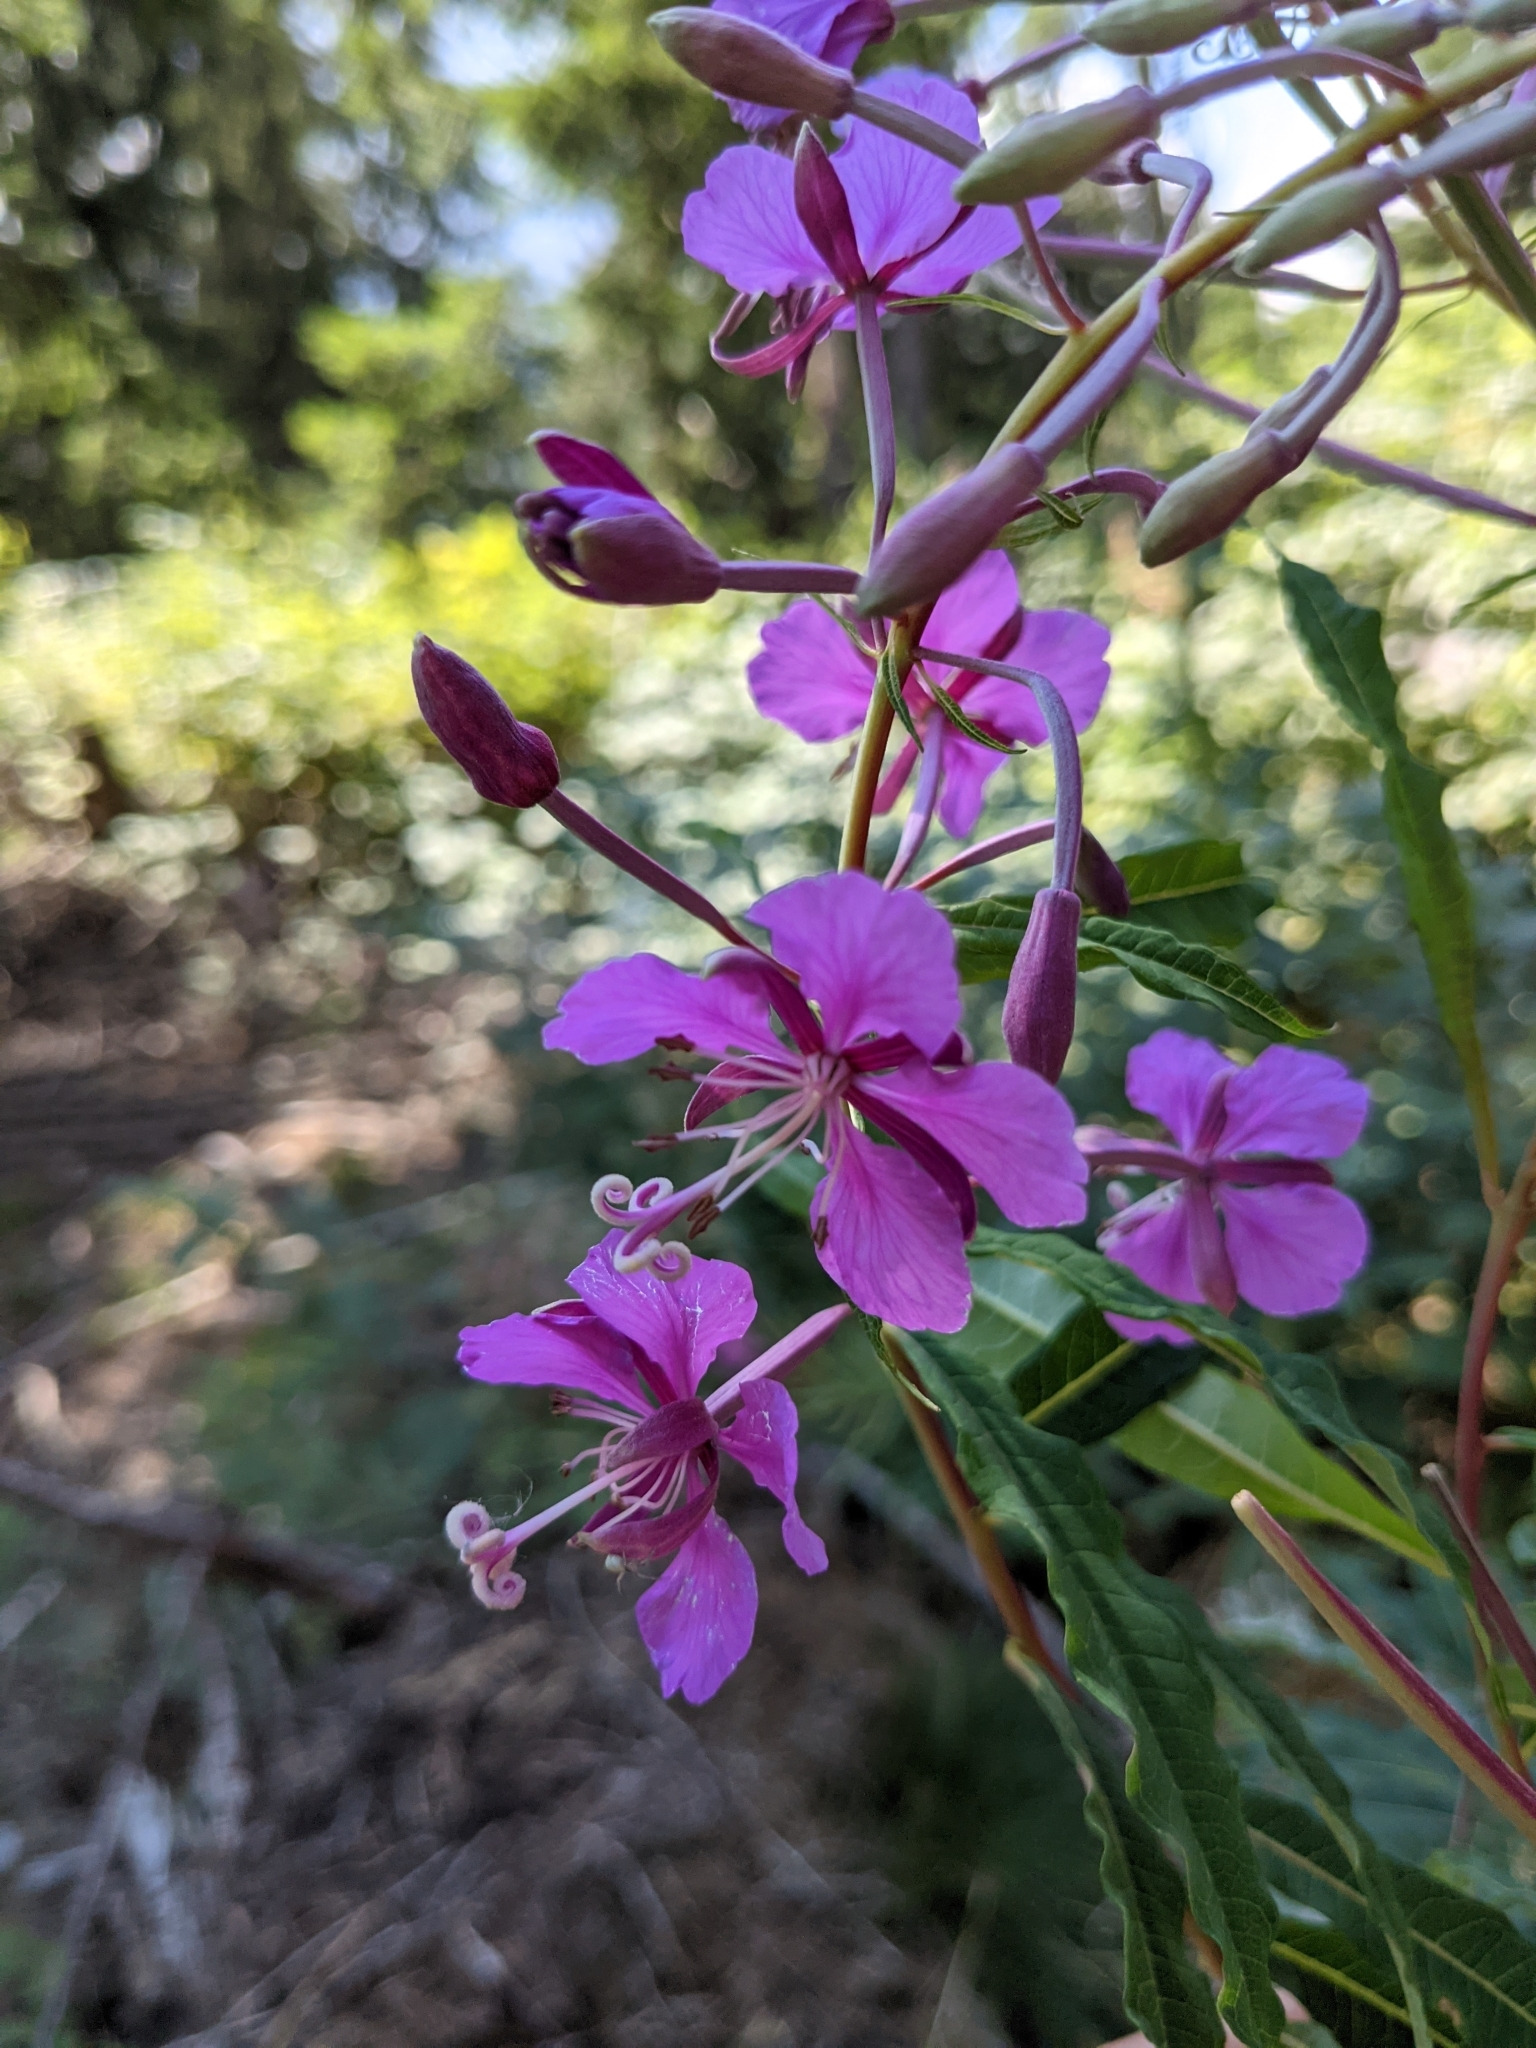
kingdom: Plantae
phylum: Tracheophyta
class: Magnoliopsida
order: Myrtales
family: Onagraceae
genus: Chamaenerion
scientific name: Chamaenerion angustifolium
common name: Fireweed
